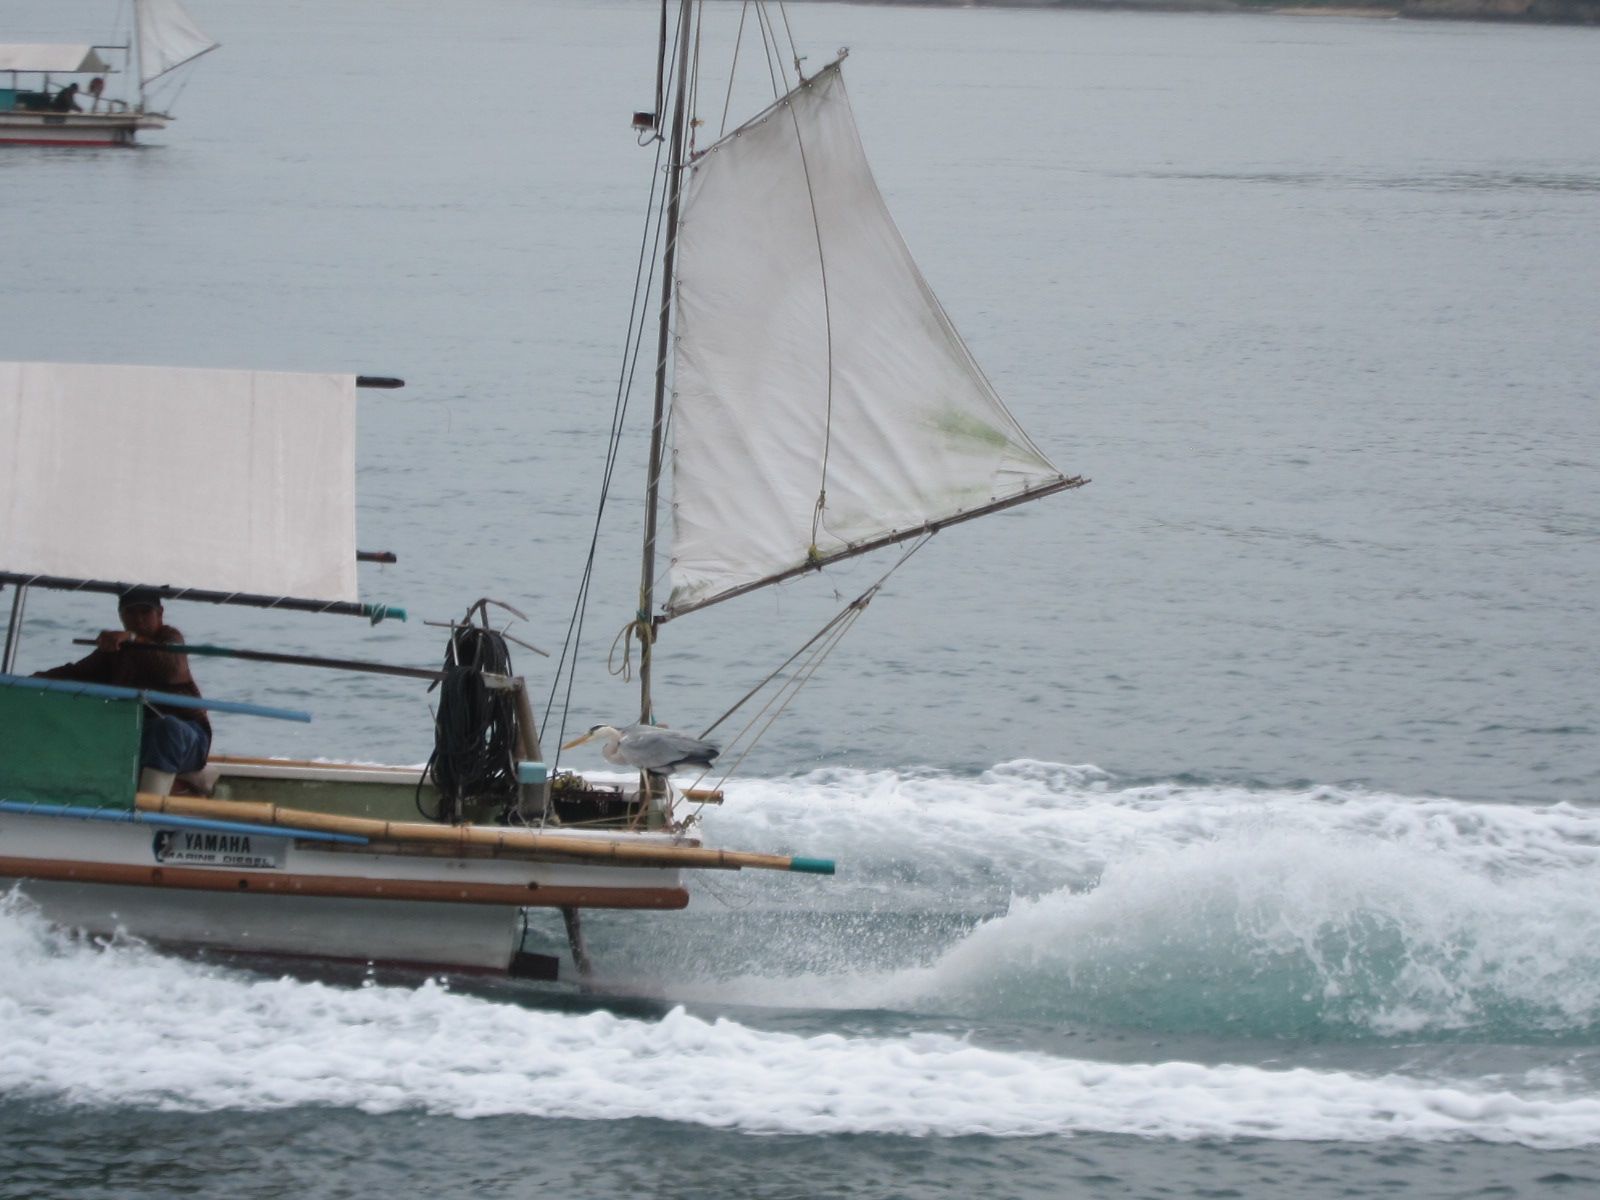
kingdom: Animalia
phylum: Chordata
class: Aves
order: Pelecaniformes
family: Ardeidae
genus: Ardea
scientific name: Ardea cinerea
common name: Grey heron
